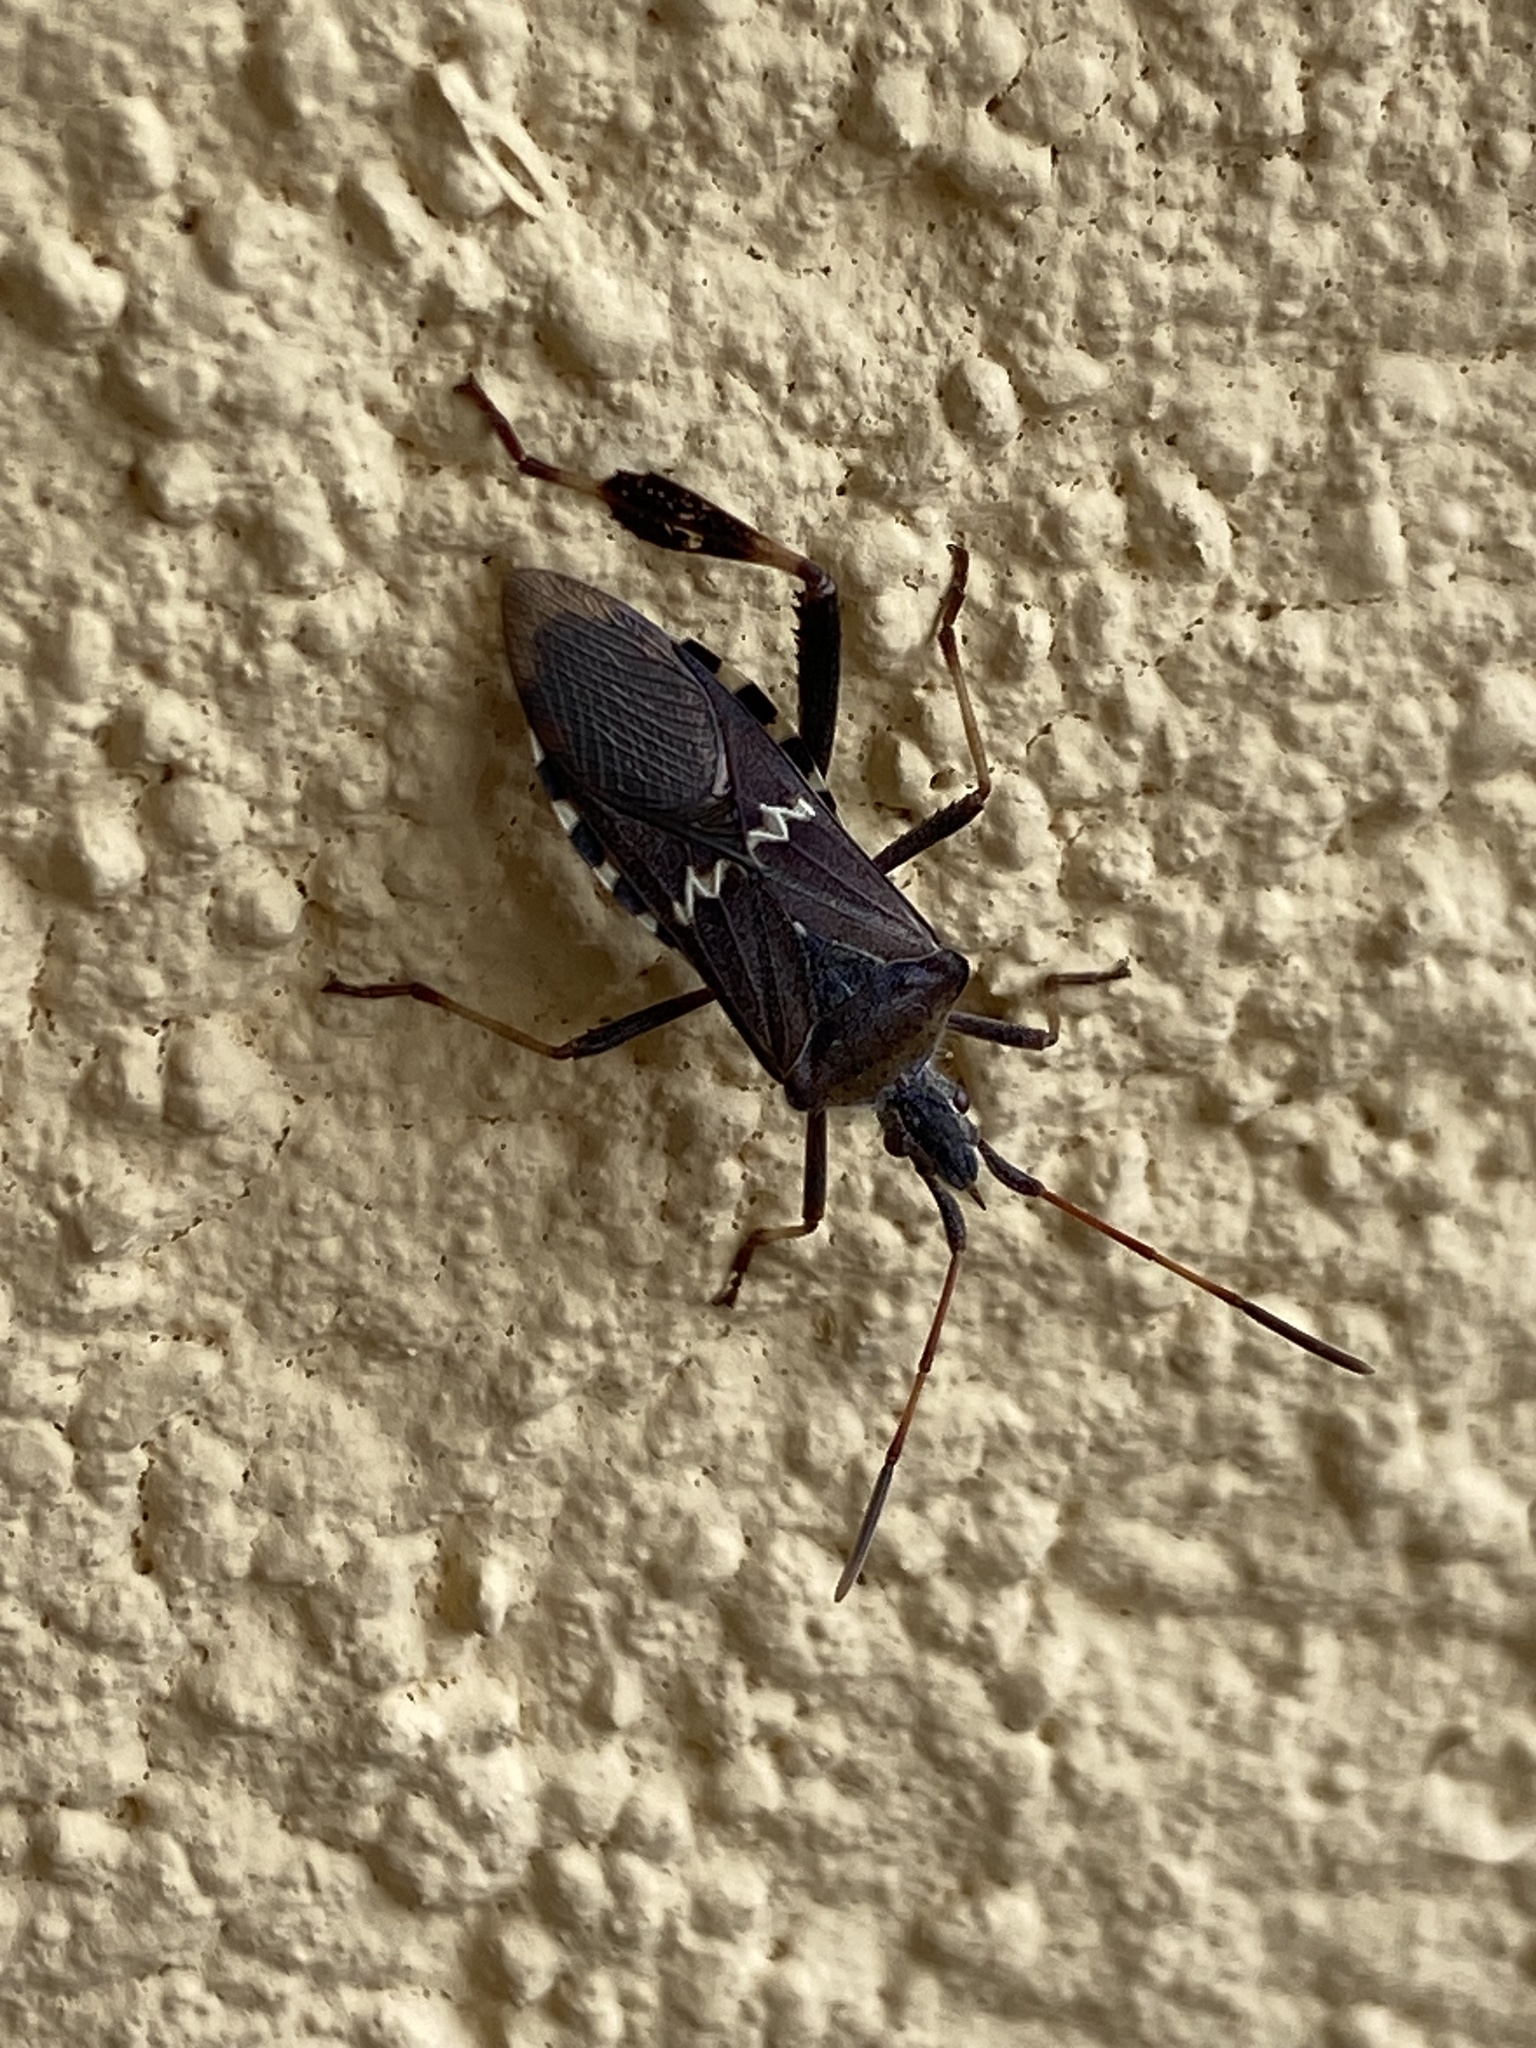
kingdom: Animalia
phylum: Arthropoda
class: Insecta
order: Hemiptera
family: Coreidae
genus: Leptoglossus
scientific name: Leptoglossus clypealis
